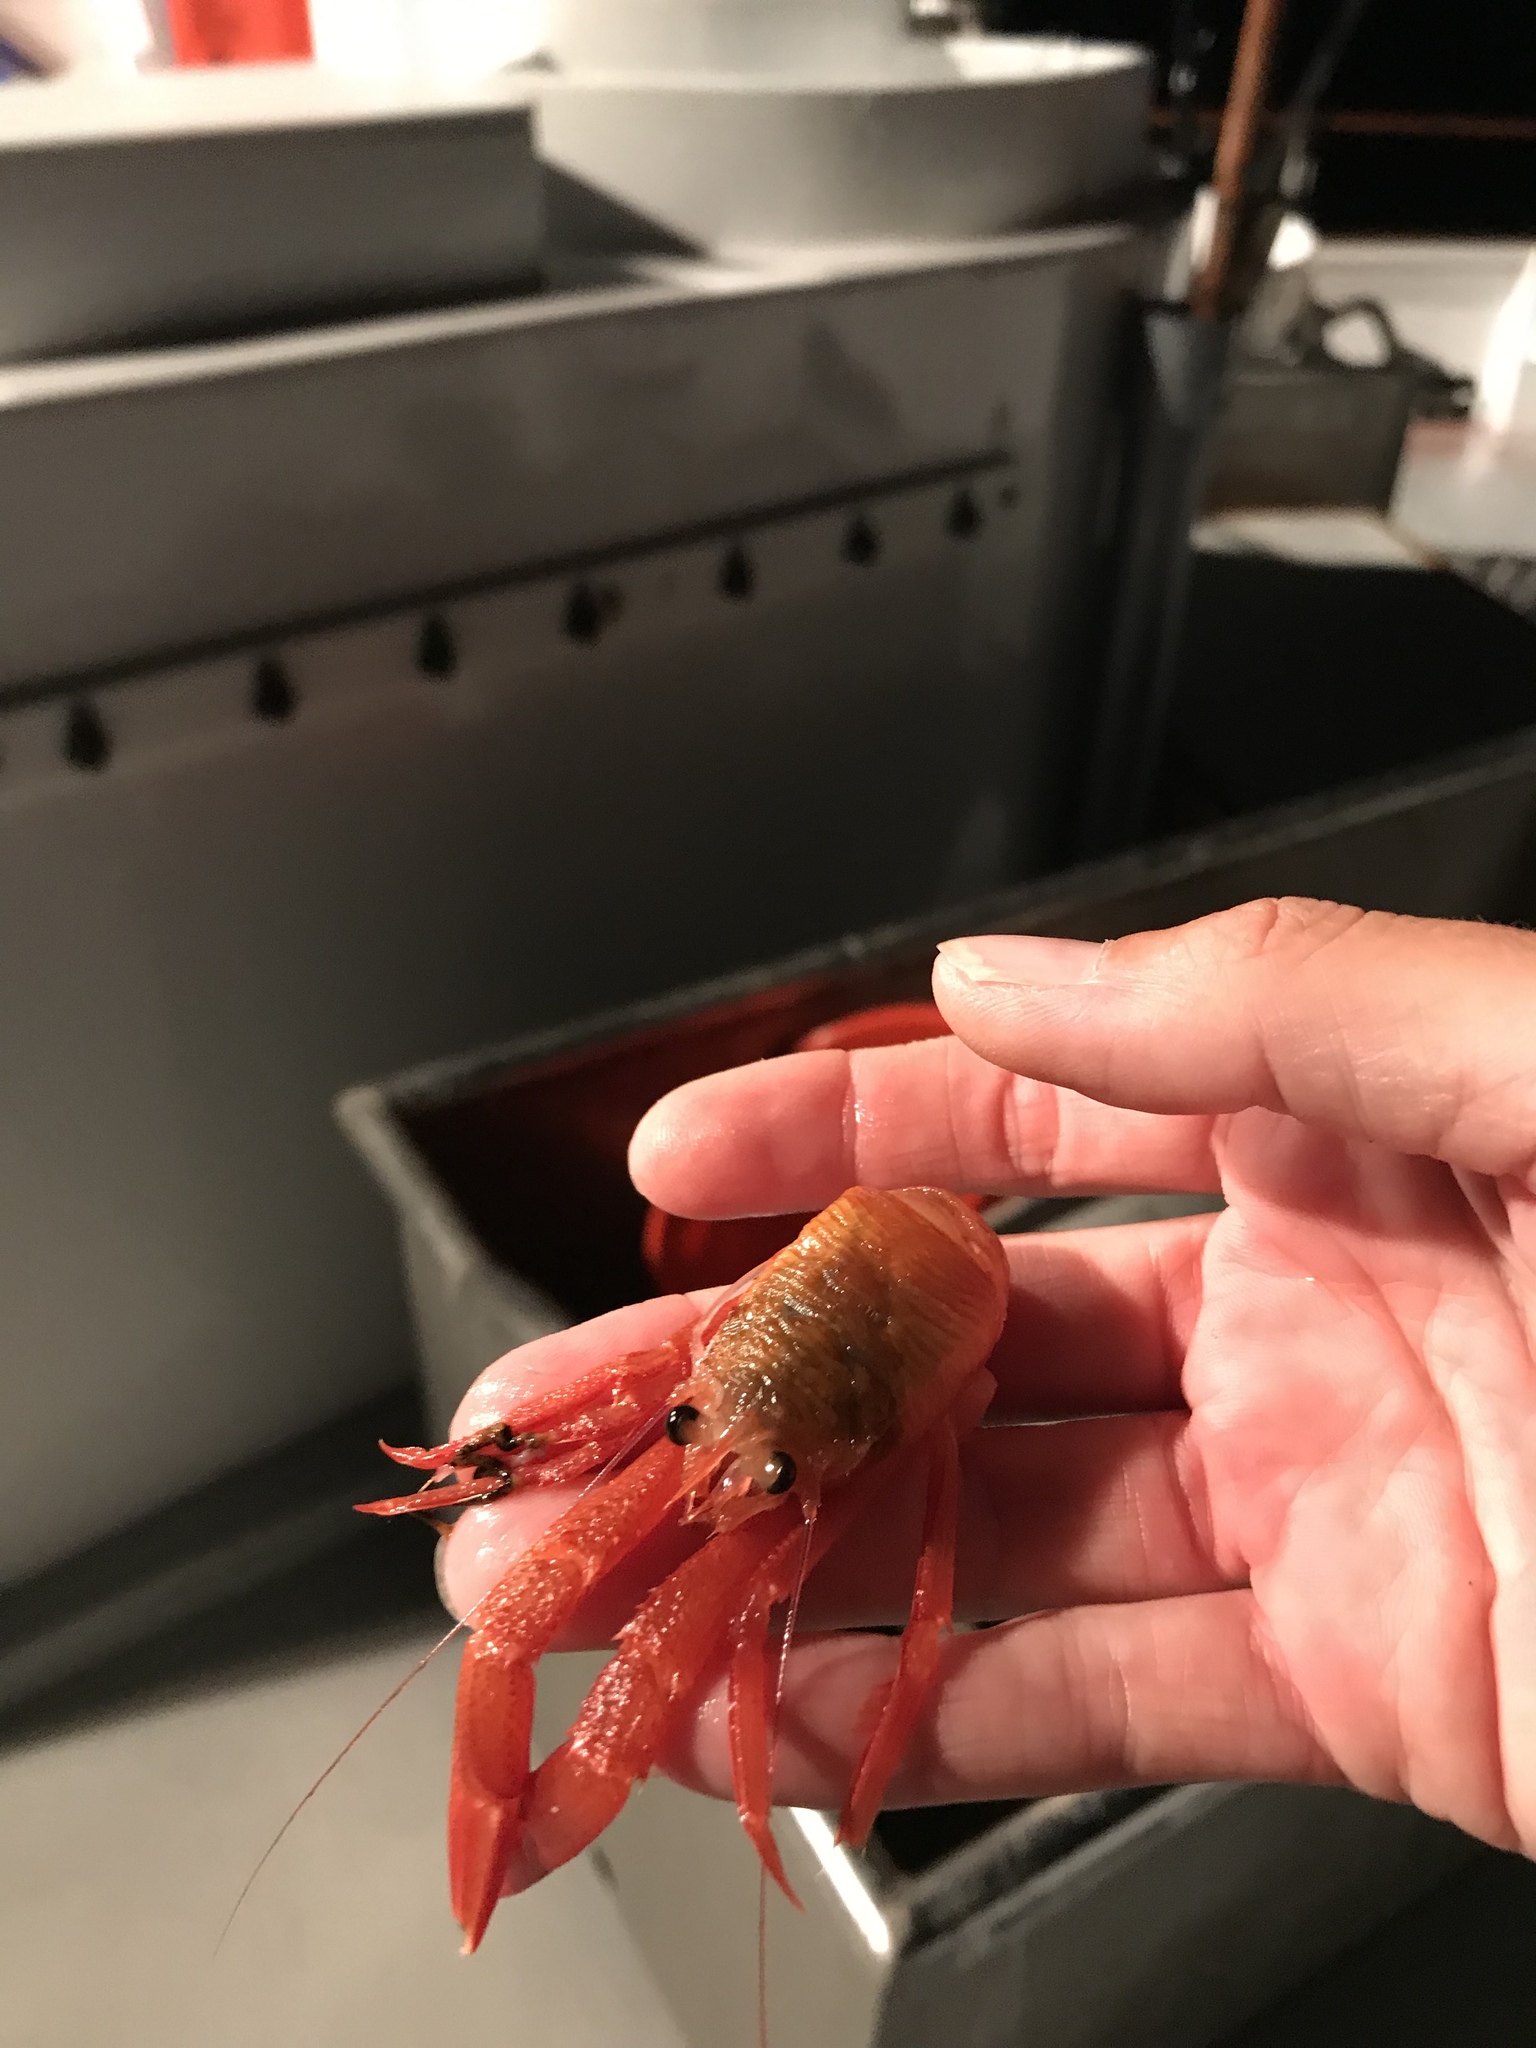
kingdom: Animalia
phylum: Arthropoda
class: Malacostraca
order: Decapoda
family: Munididae
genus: Grimothea
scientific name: Grimothea planipes
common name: Pelagic red crab
